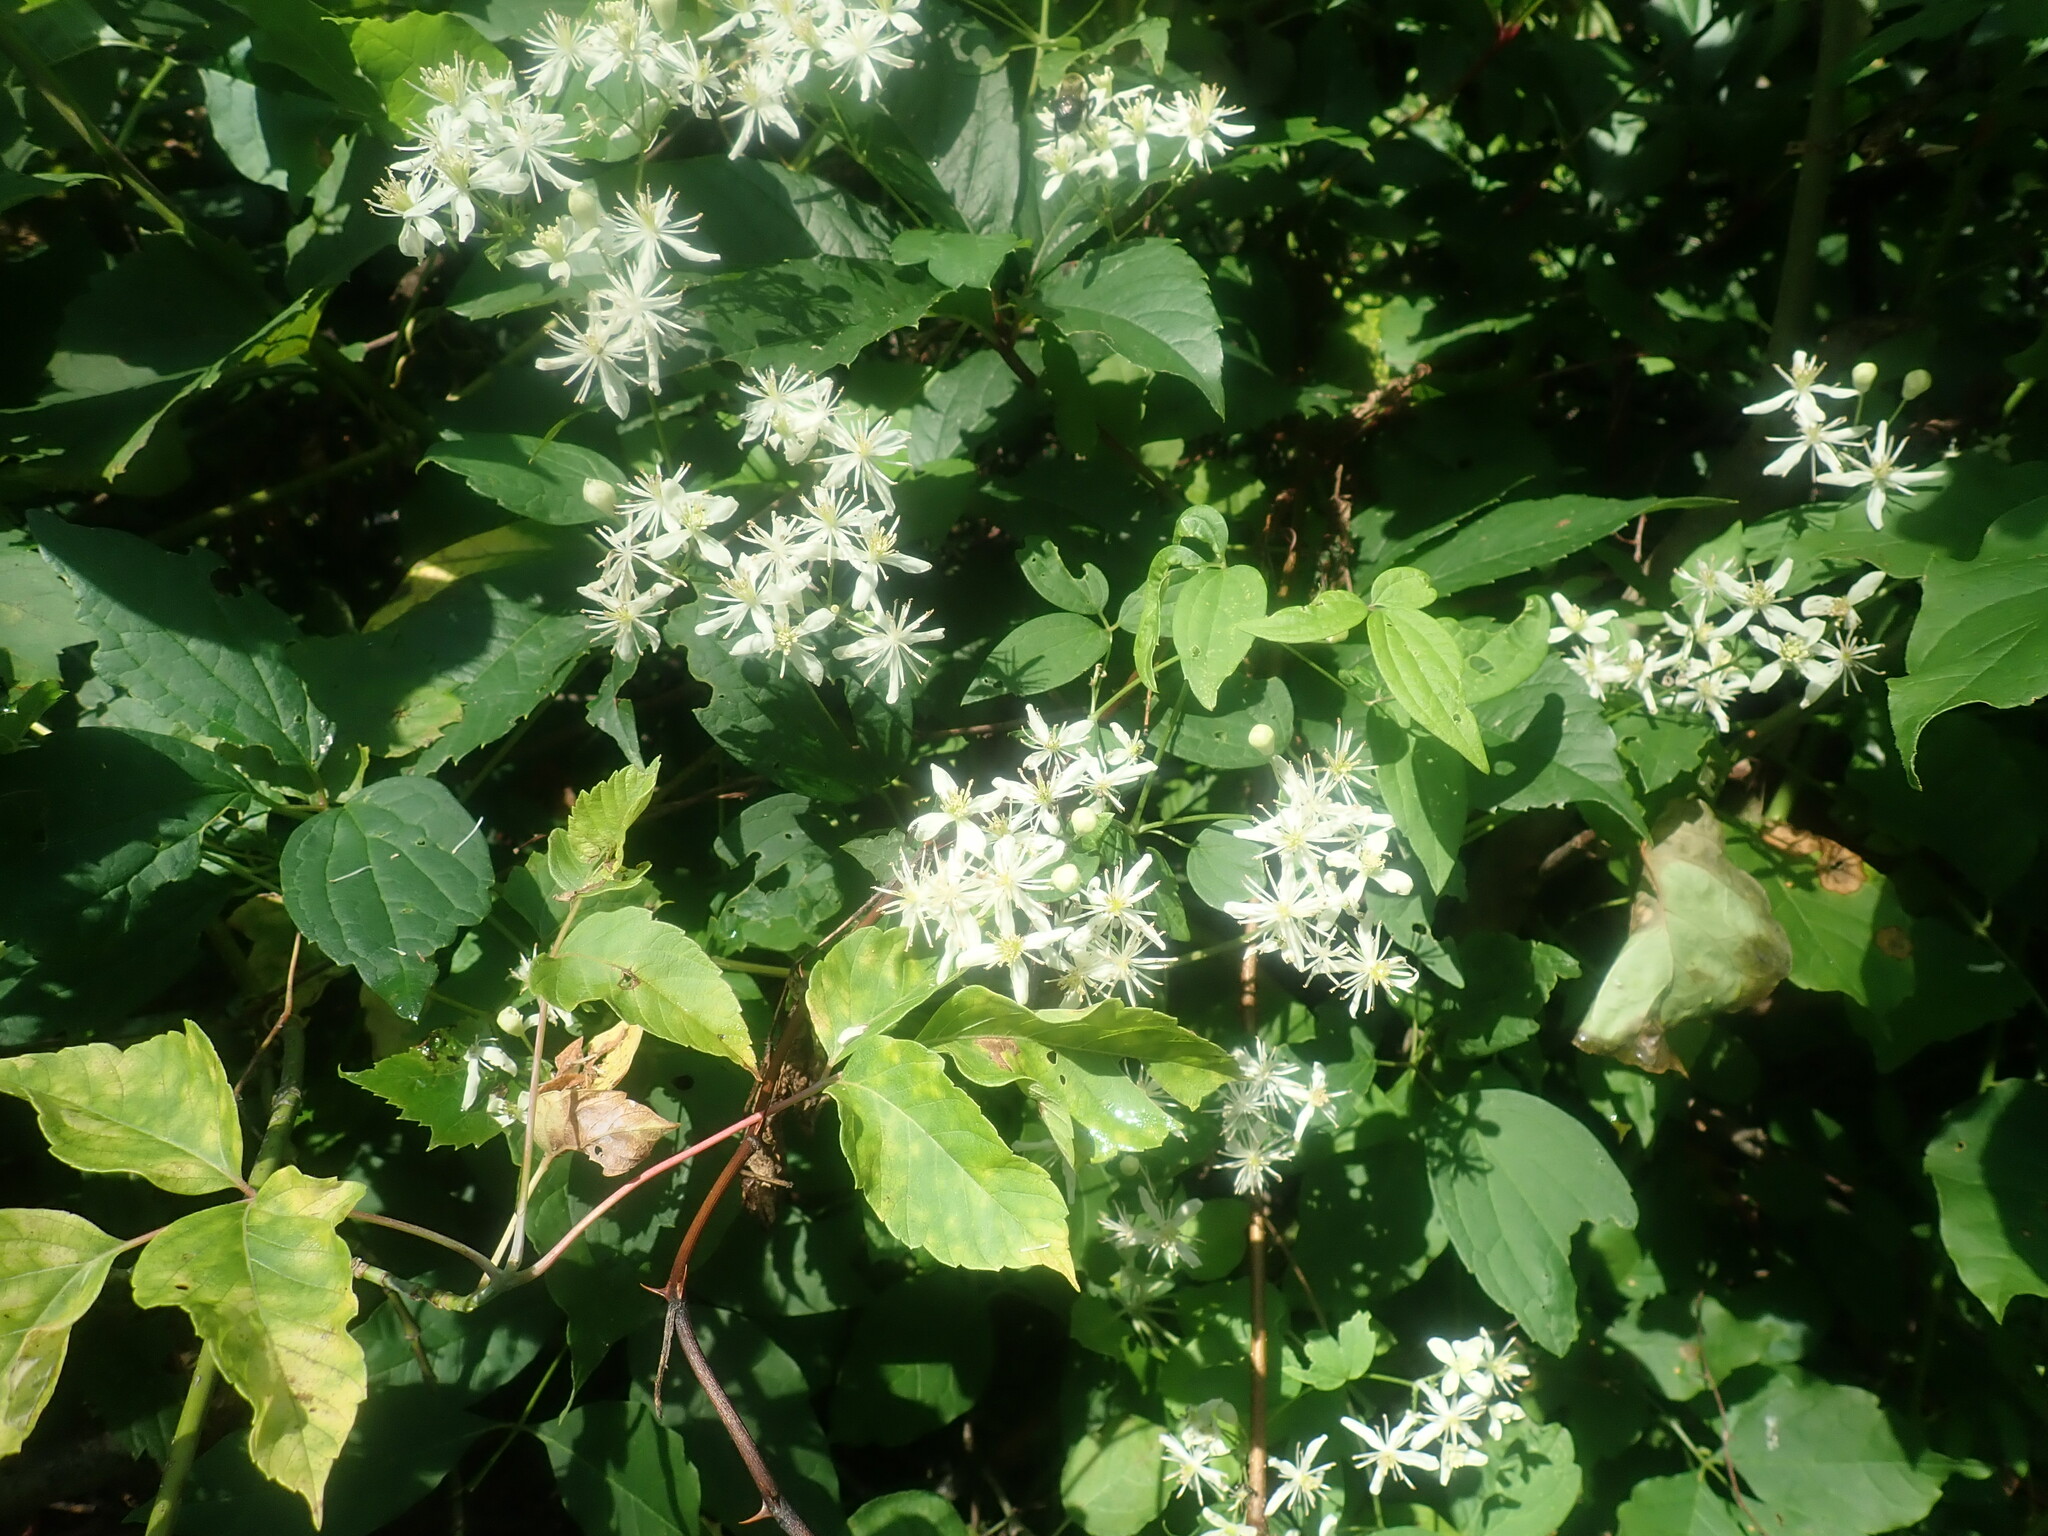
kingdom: Plantae
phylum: Tracheophyta
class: Magnoliopsida
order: Ranunculales
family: Ranunculaceae
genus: Clematis
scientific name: Clematis virginiana
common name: Virgin's-bower
